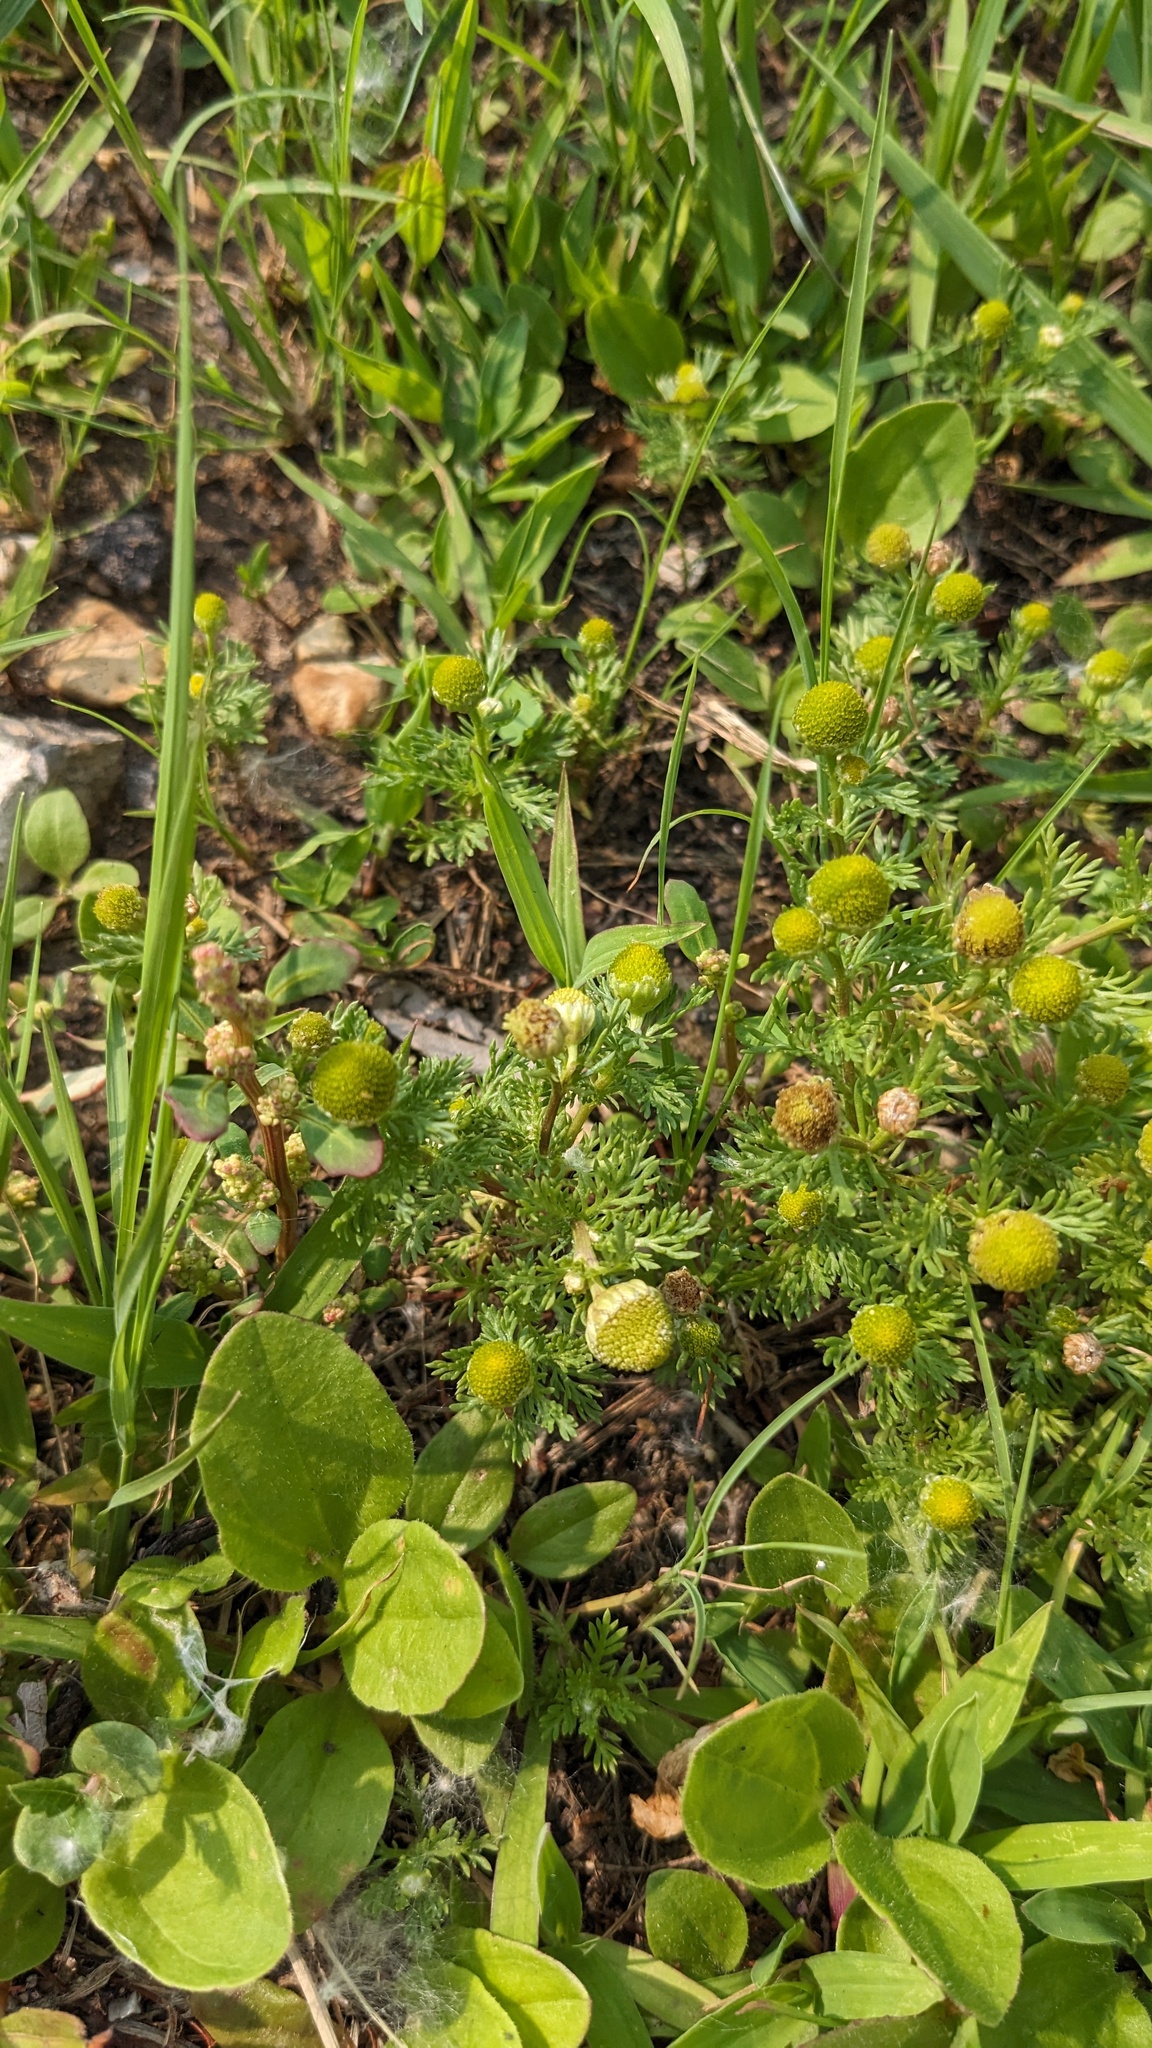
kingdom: Plantae
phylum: Tracheophyta
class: Magnoliopsida
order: Asterales
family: Asteraceae
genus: Matricaria
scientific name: Matricaria discoidea
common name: Disc mayweed
